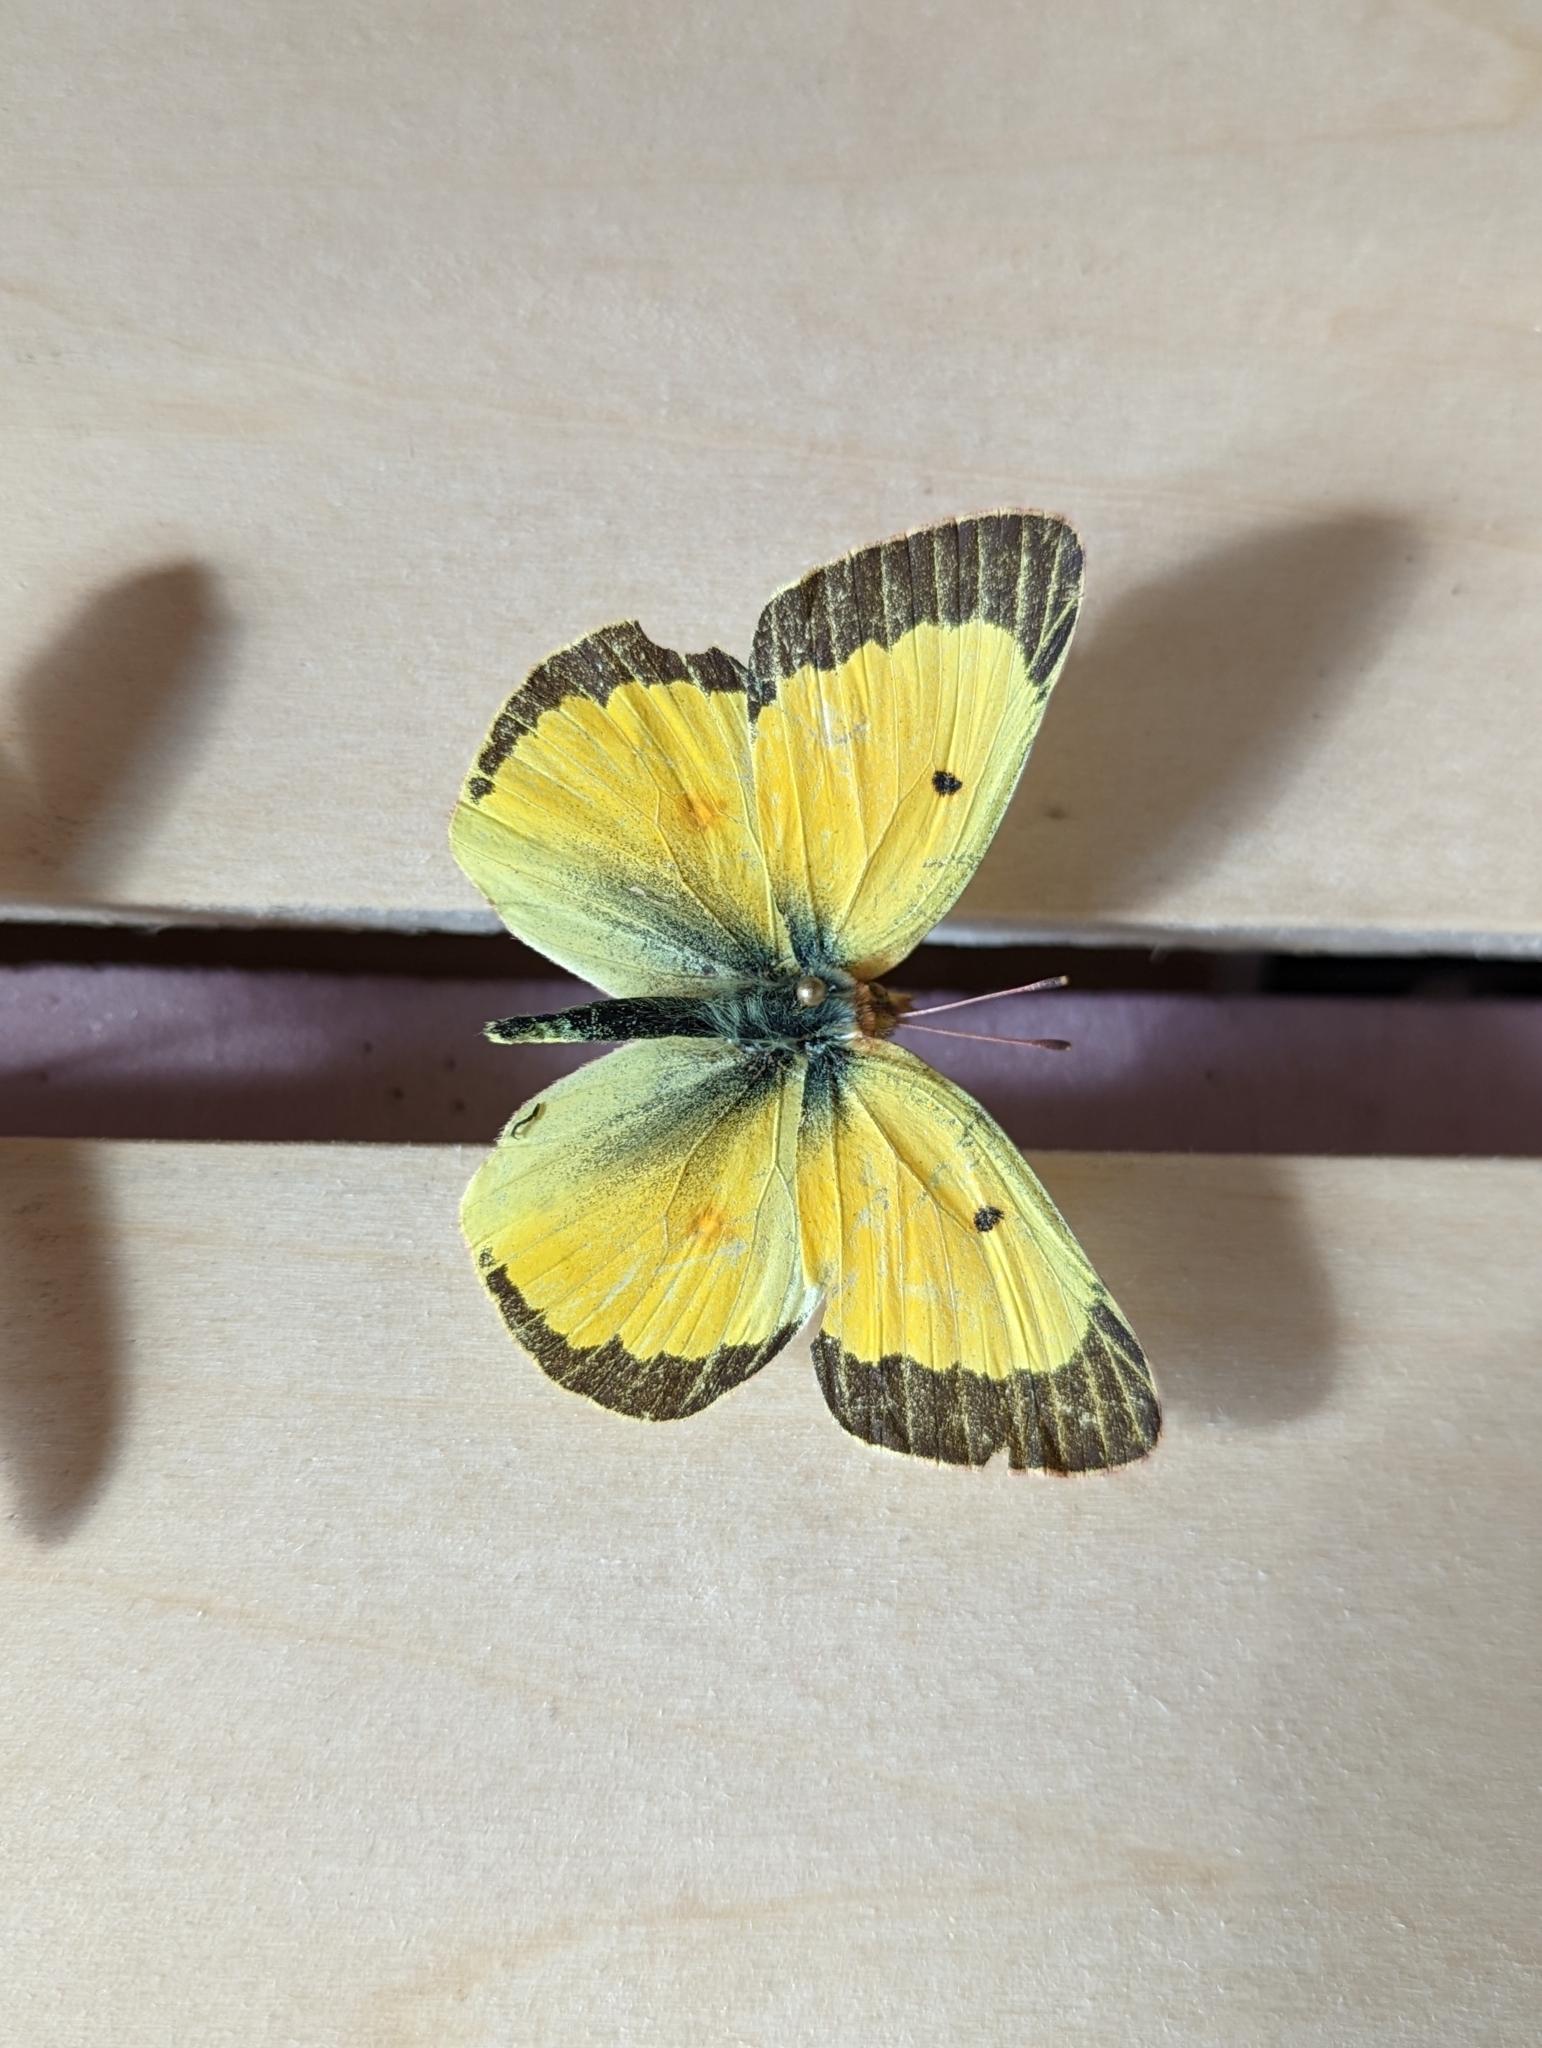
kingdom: Animalia
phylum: Arthropoda
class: Insecta
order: Lepidoptera
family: Pieridae
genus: Colias
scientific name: Colias eurytheme
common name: Alfalfa butterfly
